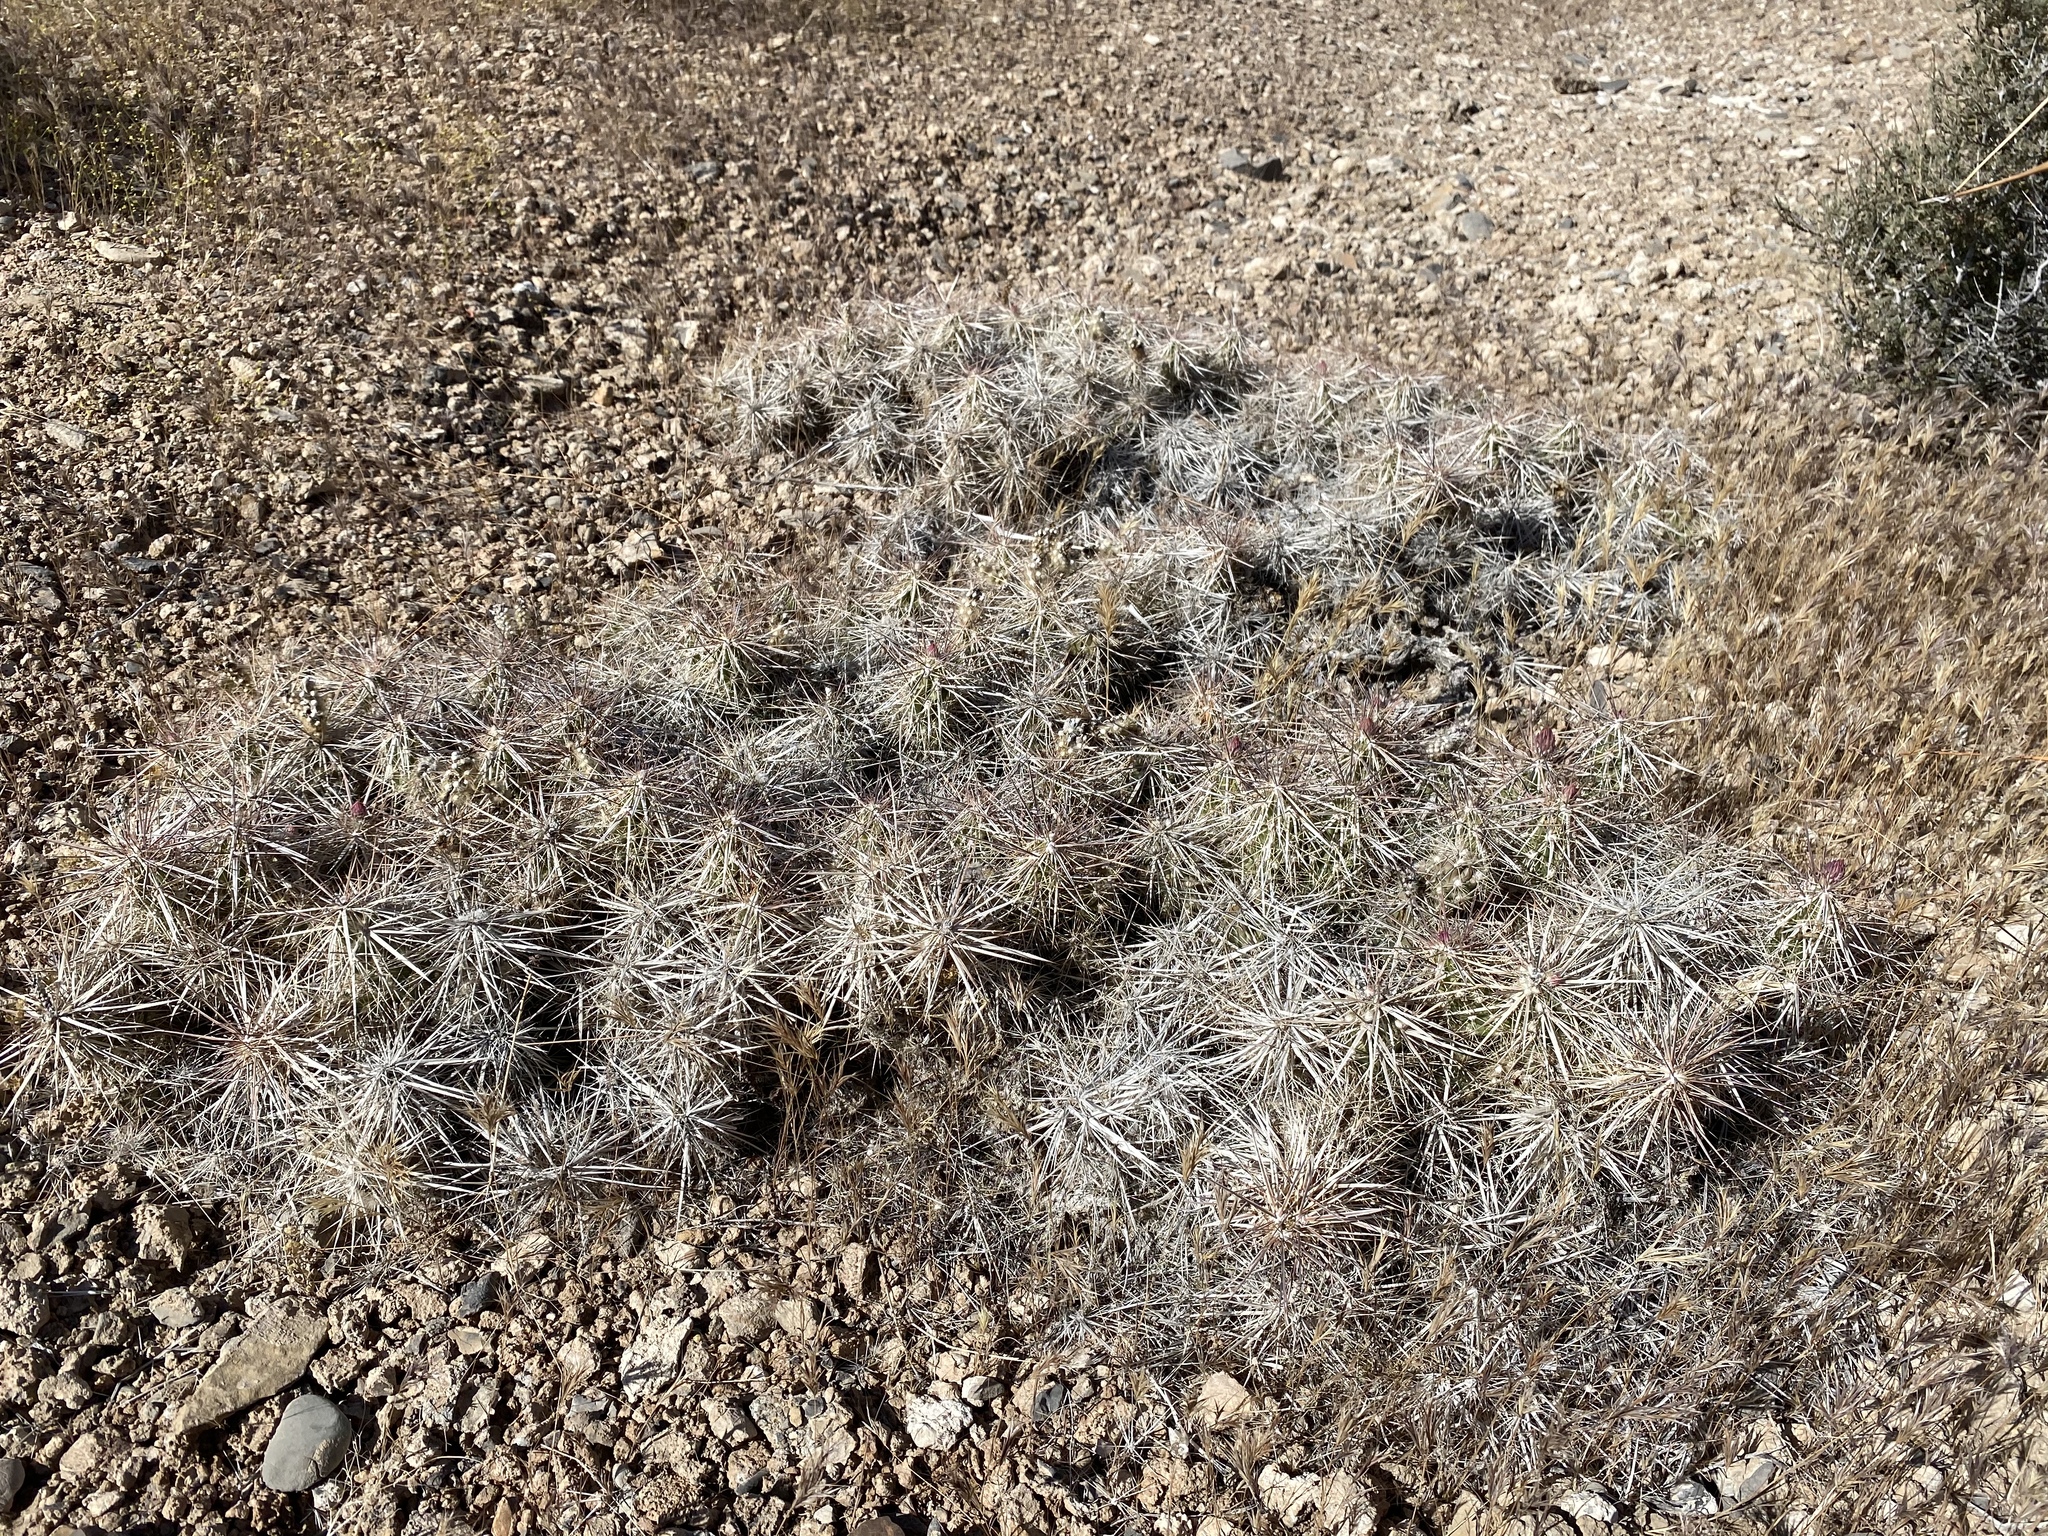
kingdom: Plantae
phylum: Tracheophyta
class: Magnoliopsida
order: Caryophyllales
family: Cactaceae
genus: Grusonia
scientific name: Grusonia parishiorum
